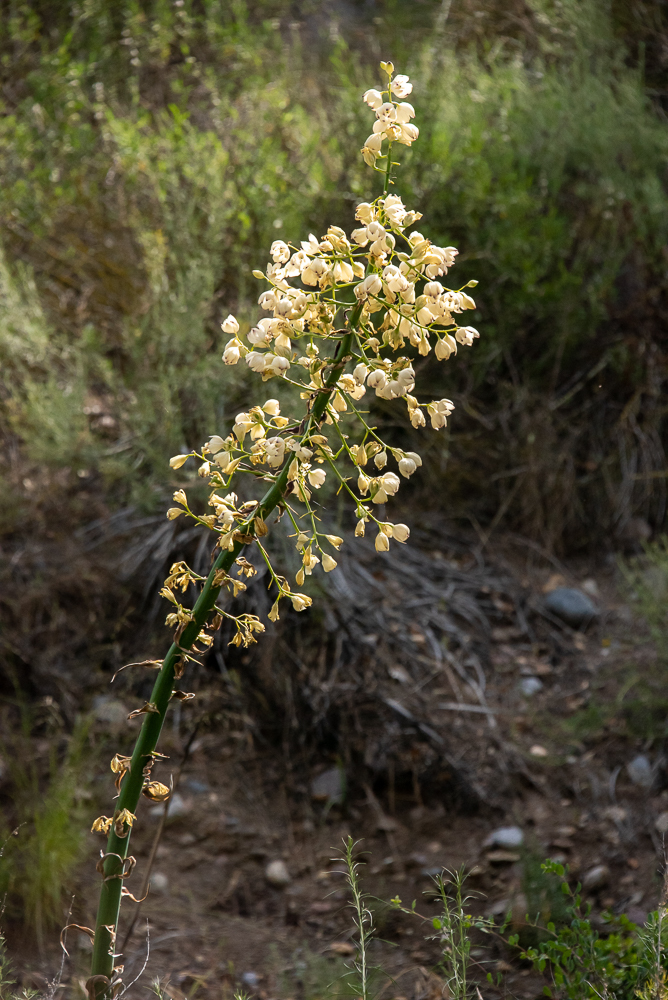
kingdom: Plantae
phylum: Tracheophyta
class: Liliopsida
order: Asparagales
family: Asparagaceae
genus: Hesperoyucca
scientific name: Hesperoyucca whipplei
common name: Our lord's-candle
